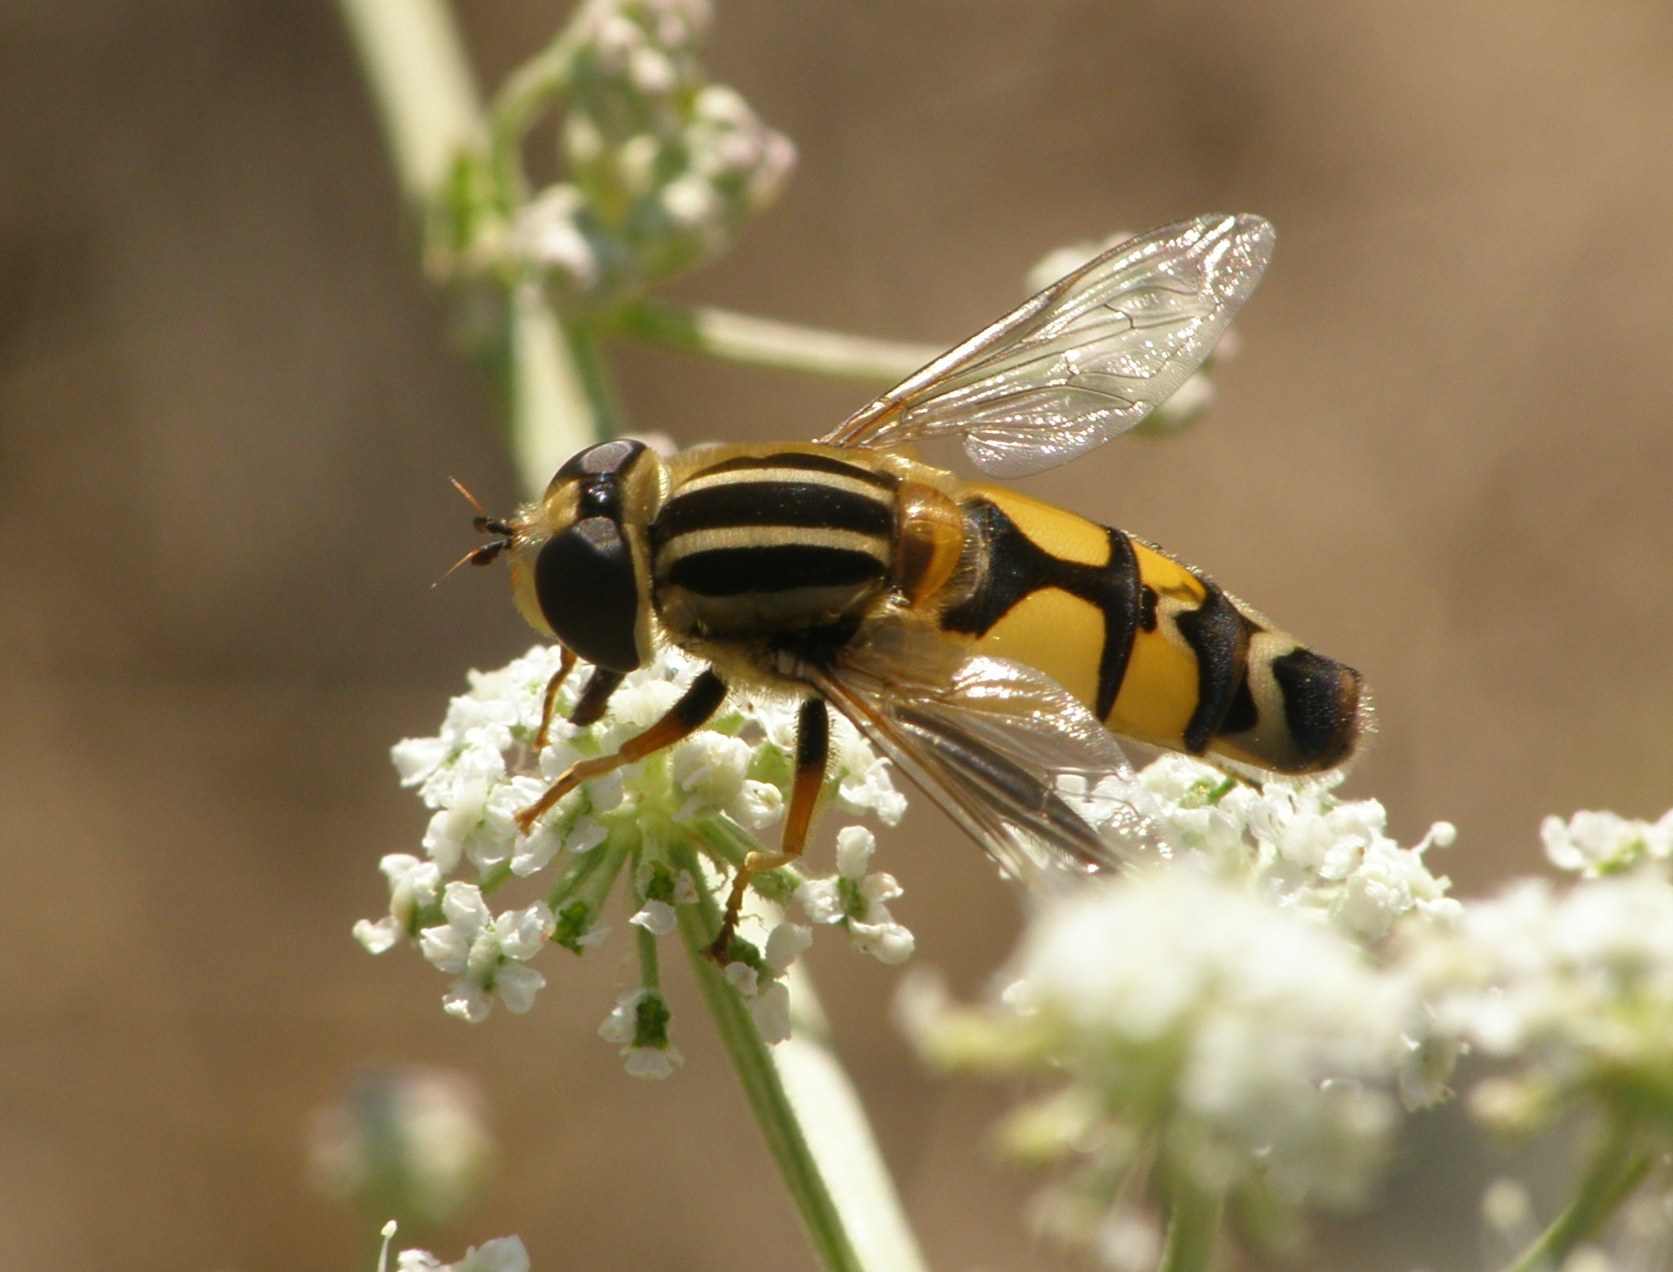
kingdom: Animalia
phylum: Arthropoda
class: Insecta
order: Diptera
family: Syrphidae
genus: Helophilus
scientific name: Helophilus trivittatus
